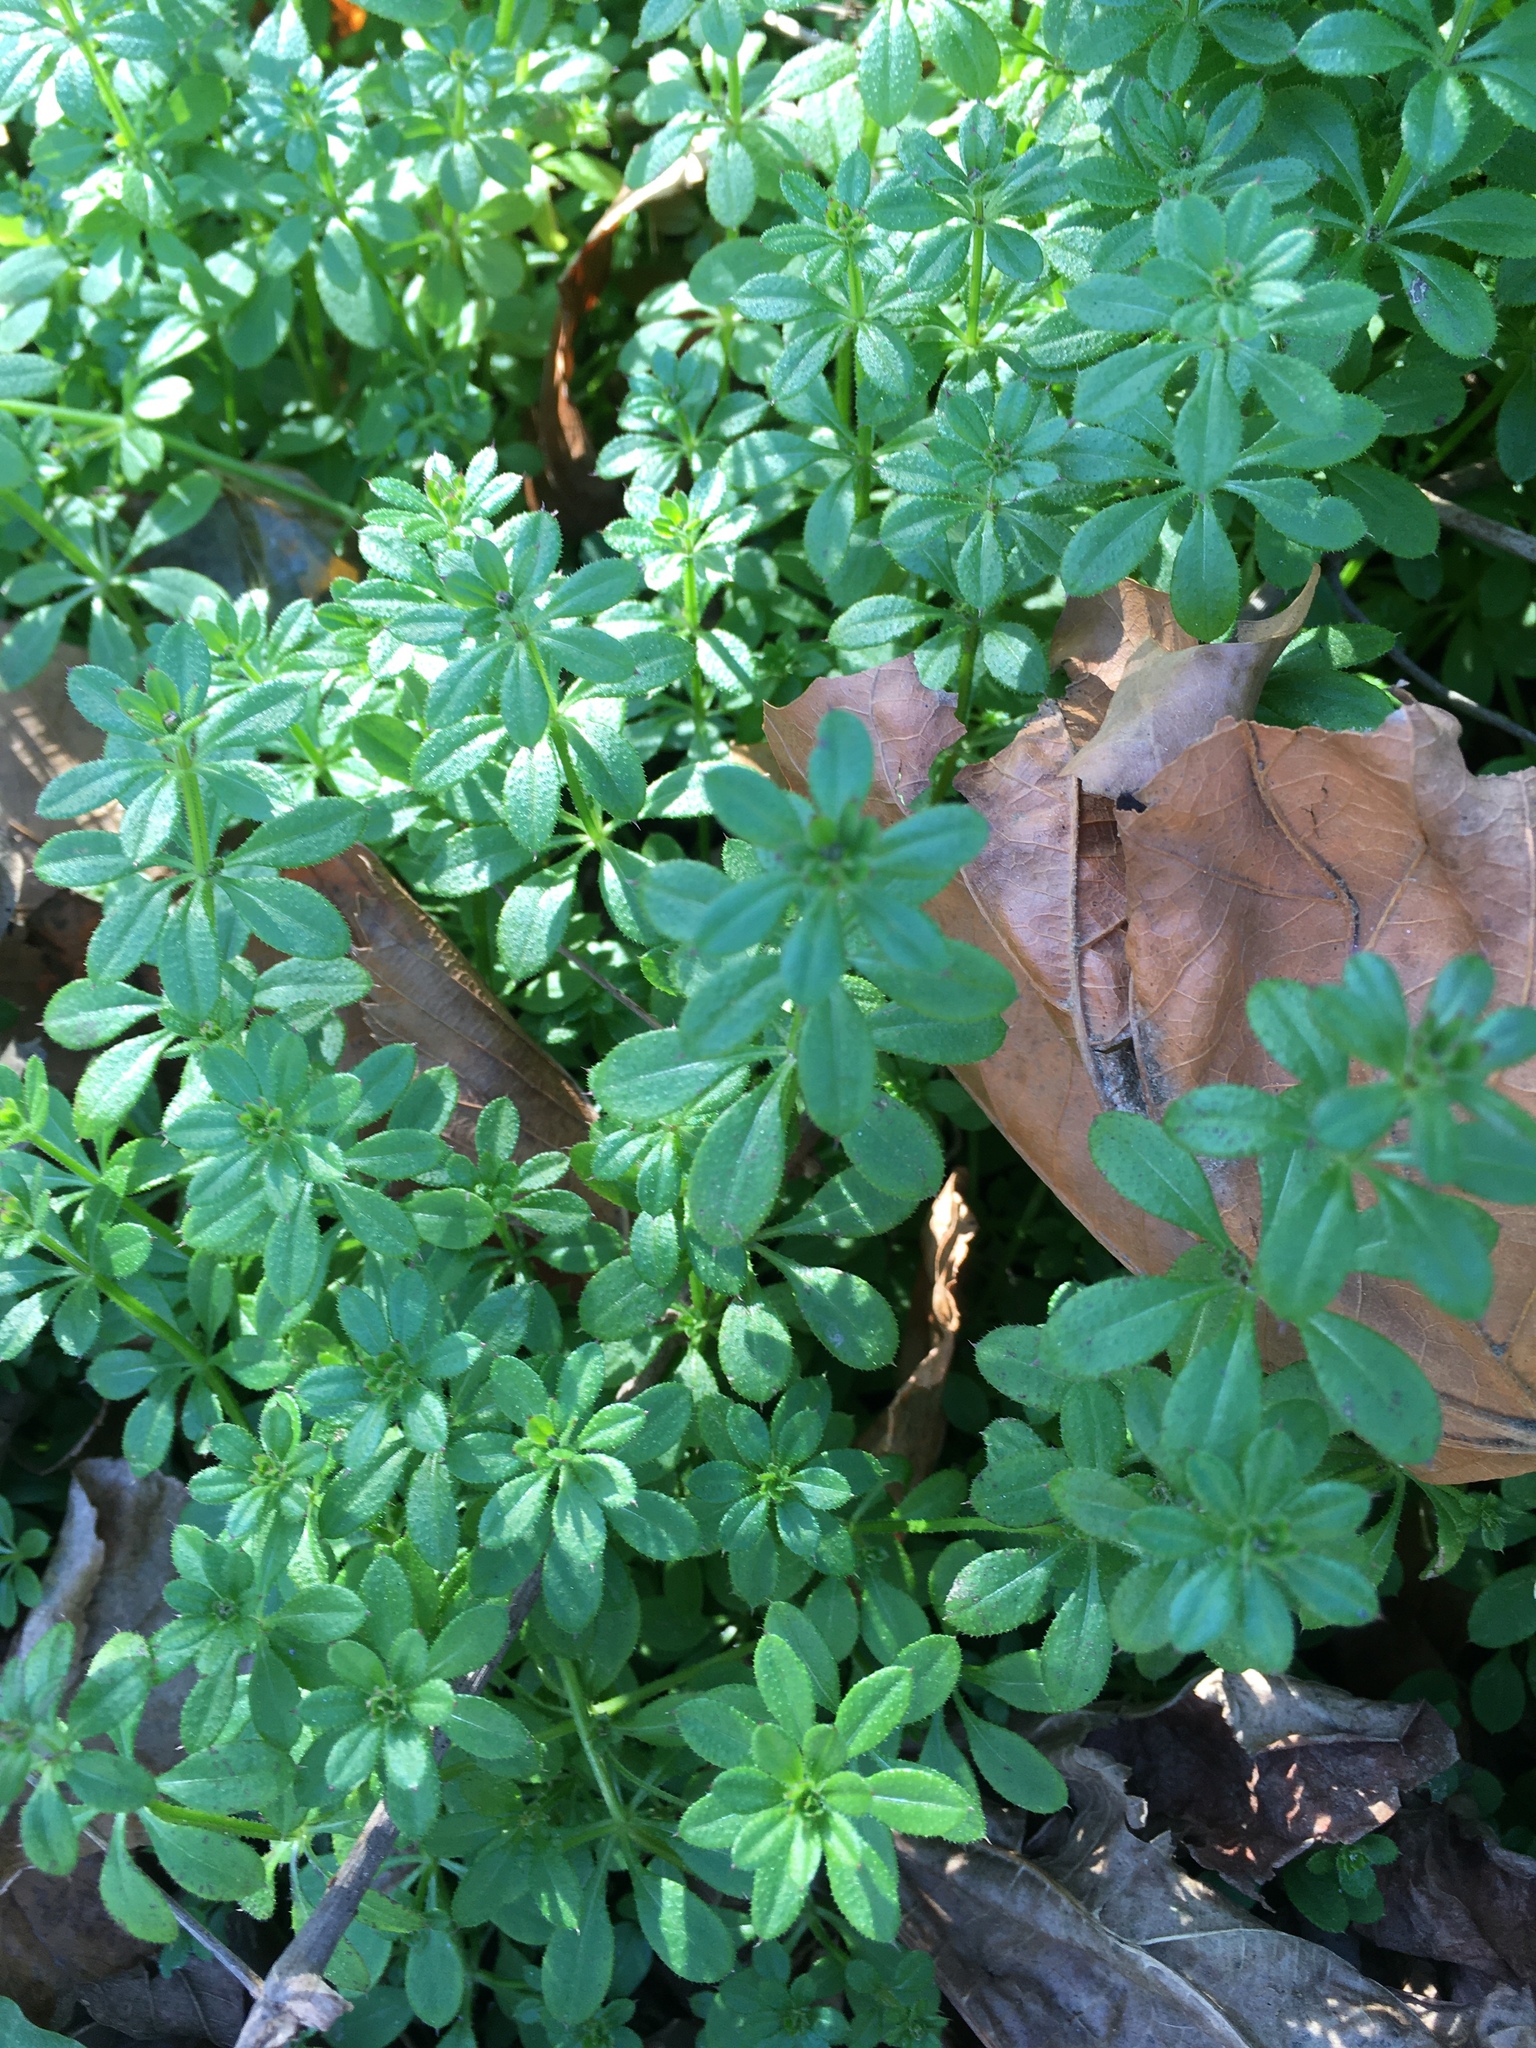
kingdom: Plantae
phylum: Tracheophyta
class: Magnoliopsida
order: Gentianales
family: Rubiaceae
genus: Galium
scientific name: Galium aparine
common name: Cleavers
